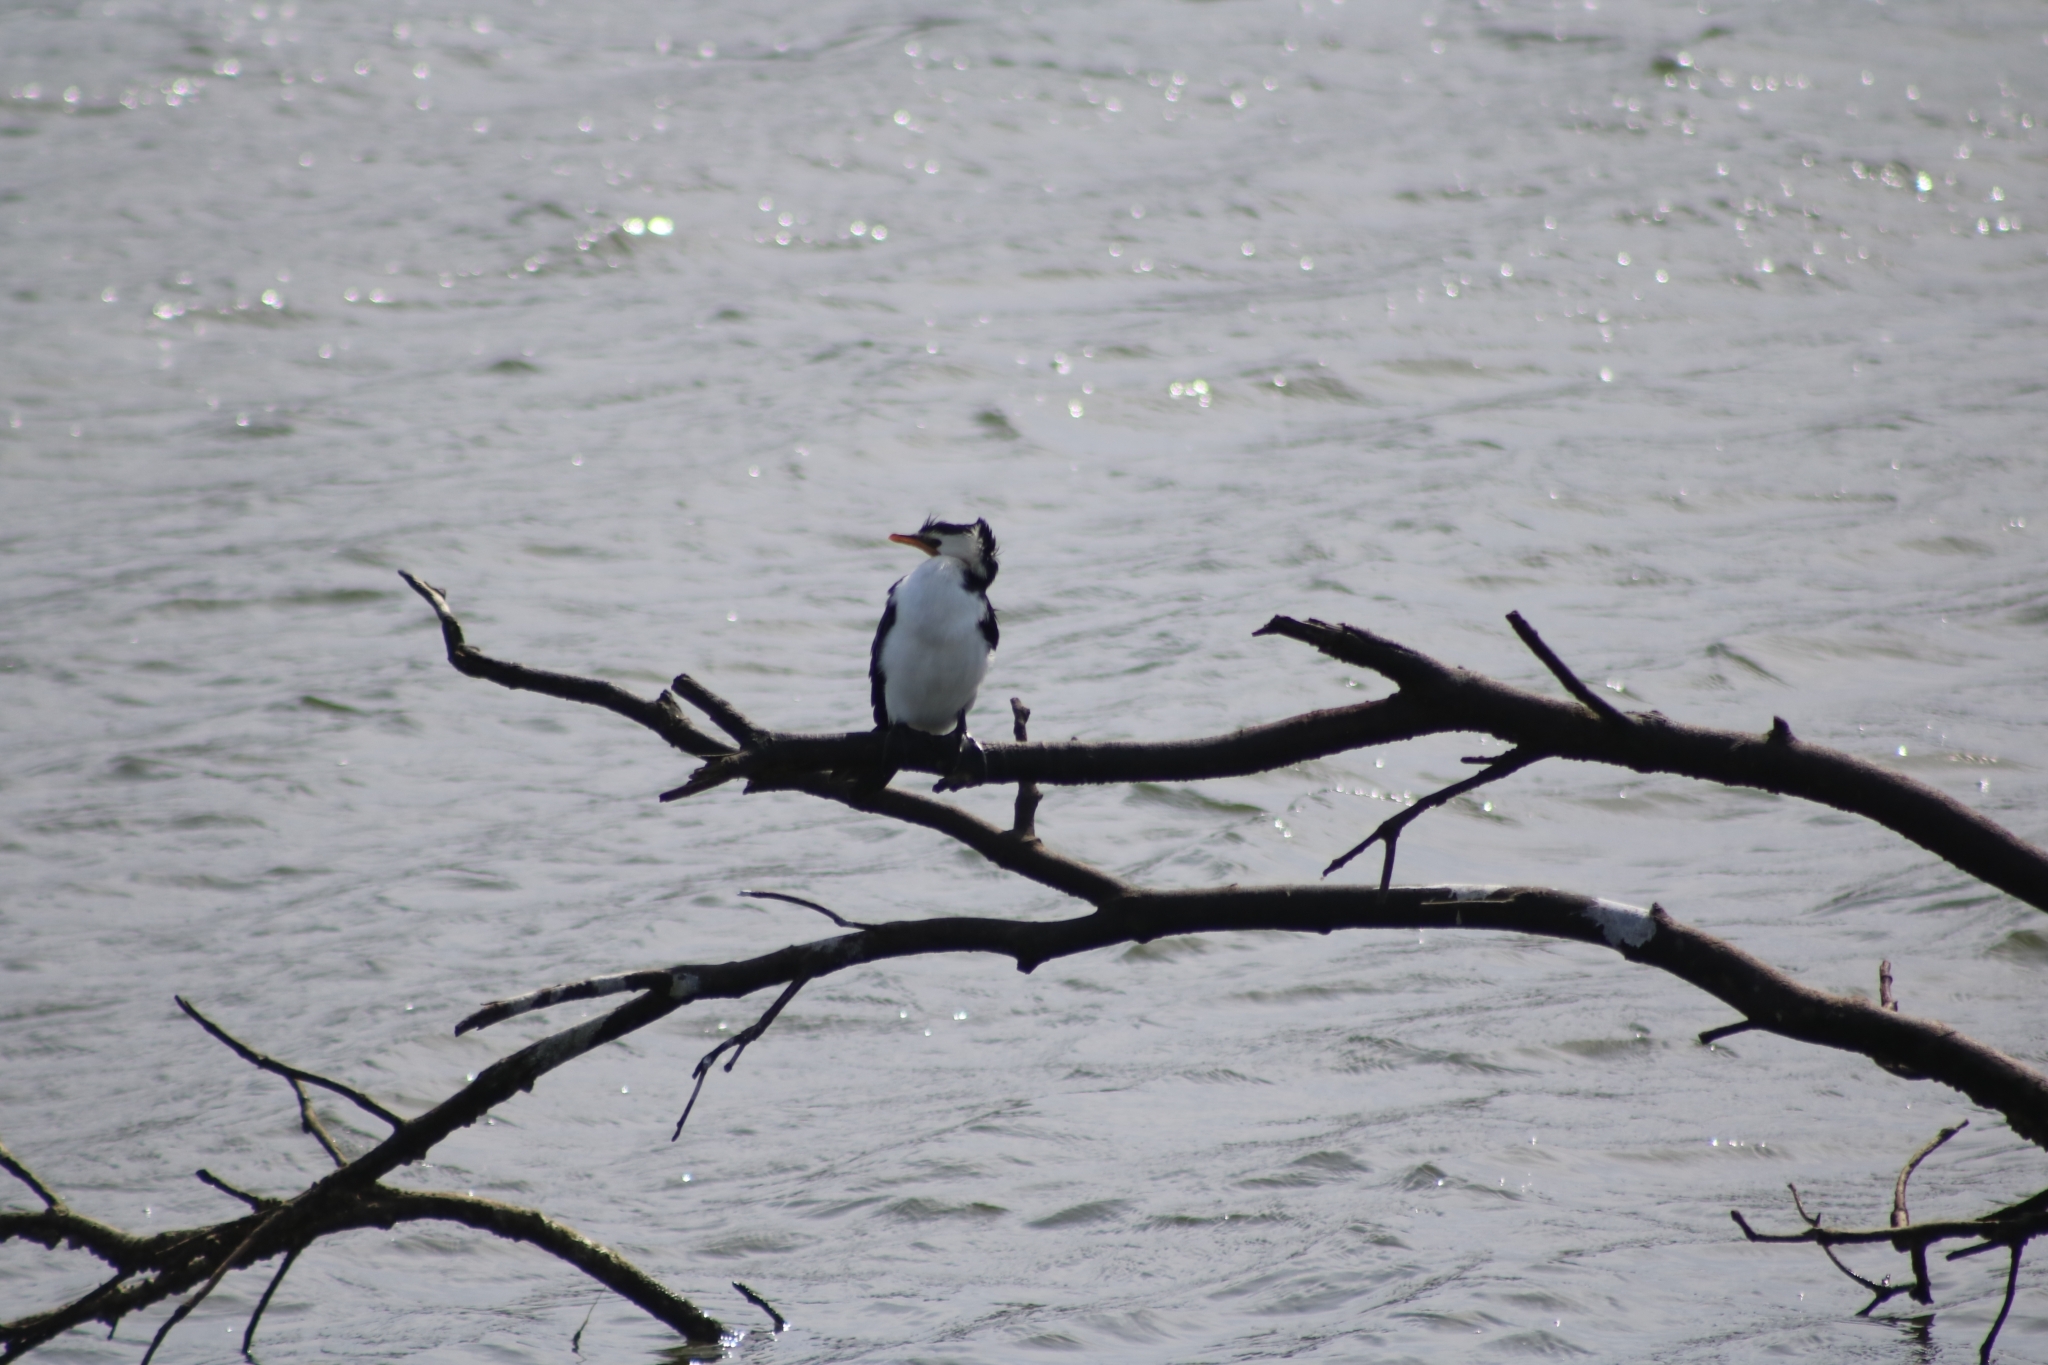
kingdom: Animalia
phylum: Chordata
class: Aves
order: Suliformes
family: Phalacrocoracidae
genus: Microcarbo
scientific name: Microcarbo melanoleucos
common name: Little pied cormorant
